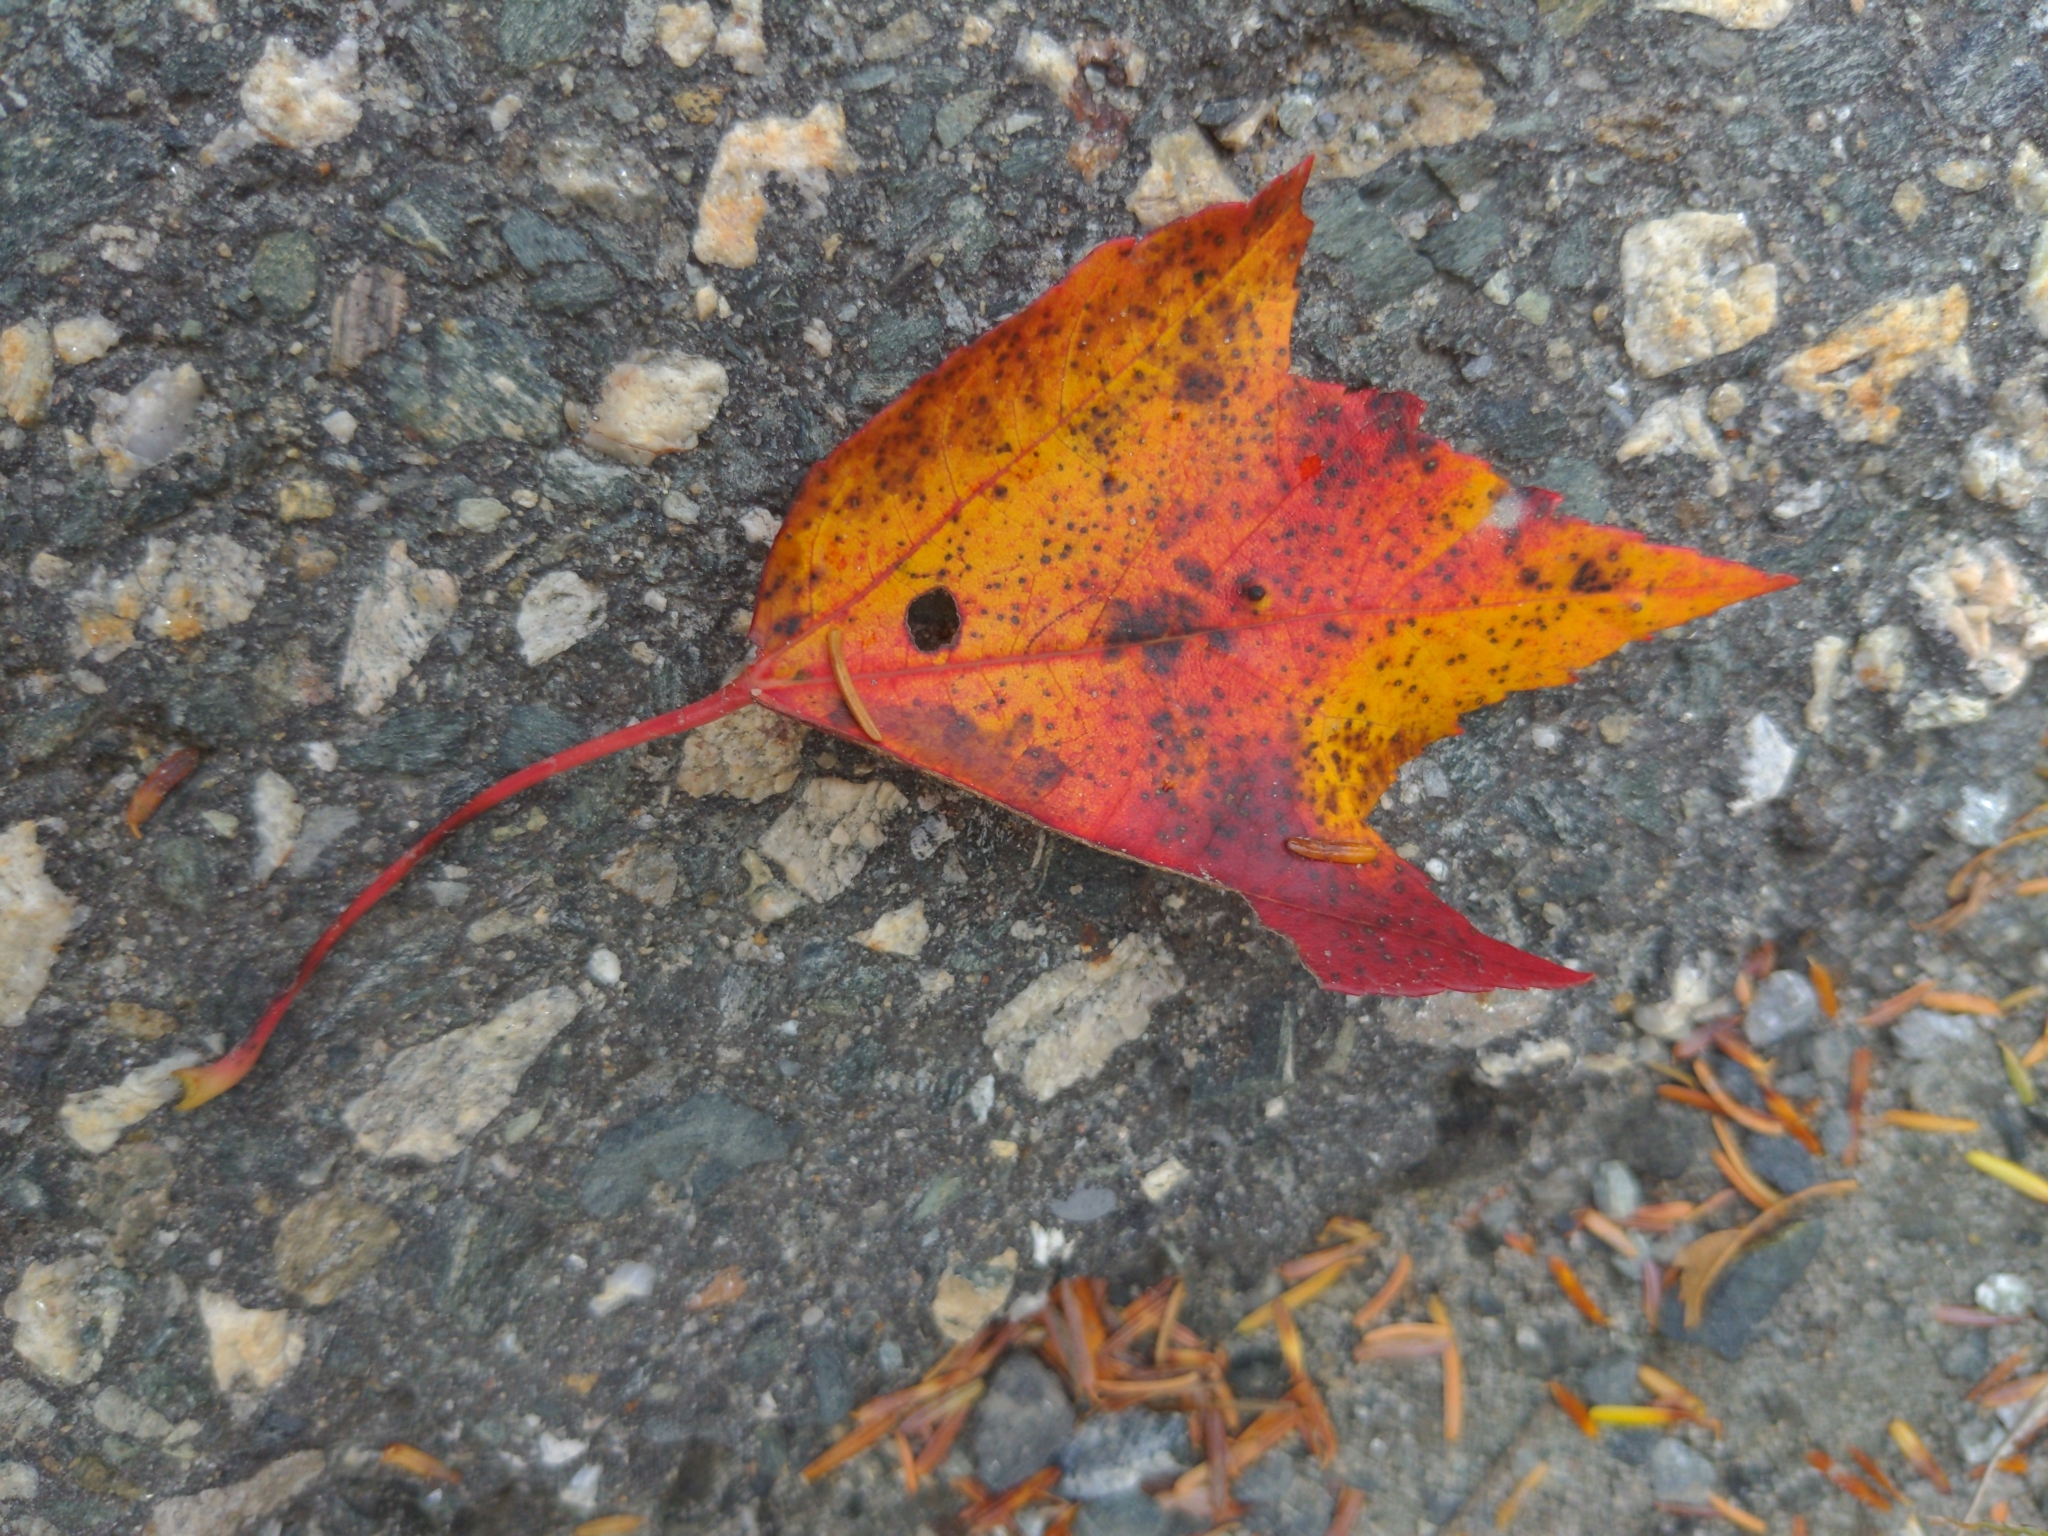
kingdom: Plantae
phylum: Tracheophyta
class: Magnoliopsida
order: Sapindales
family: Sapindaceae
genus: Acer
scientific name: Acer rubrum
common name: Red maple
